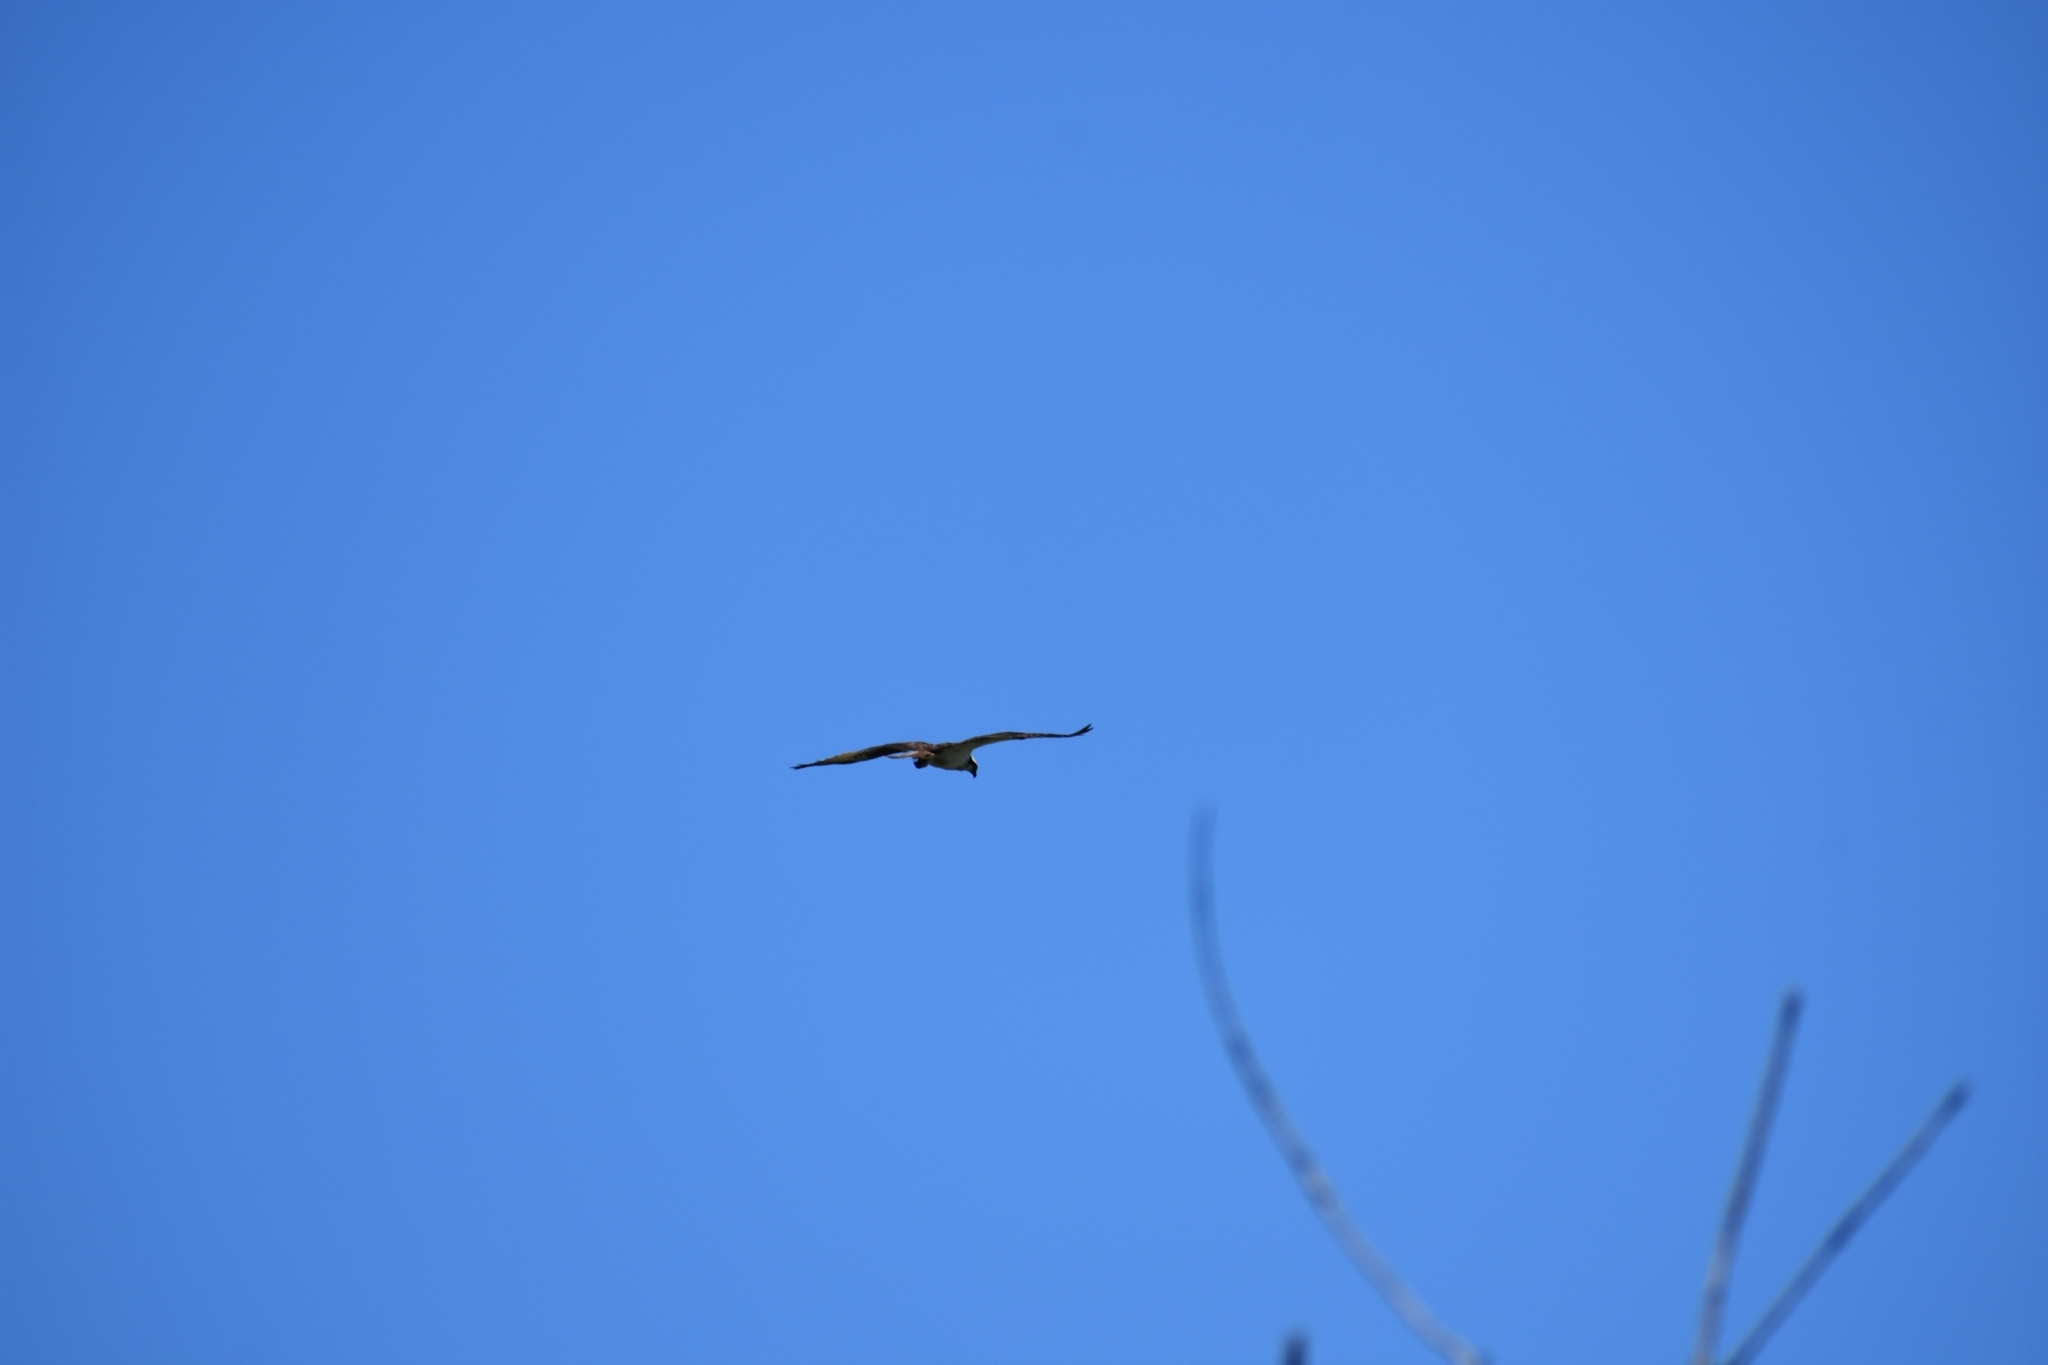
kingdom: Animalia
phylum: Chordata
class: Aves
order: Accipitriformes
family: Accipitridae
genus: Buteo
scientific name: Buteo lineatus
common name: Red-shouldered hawk
